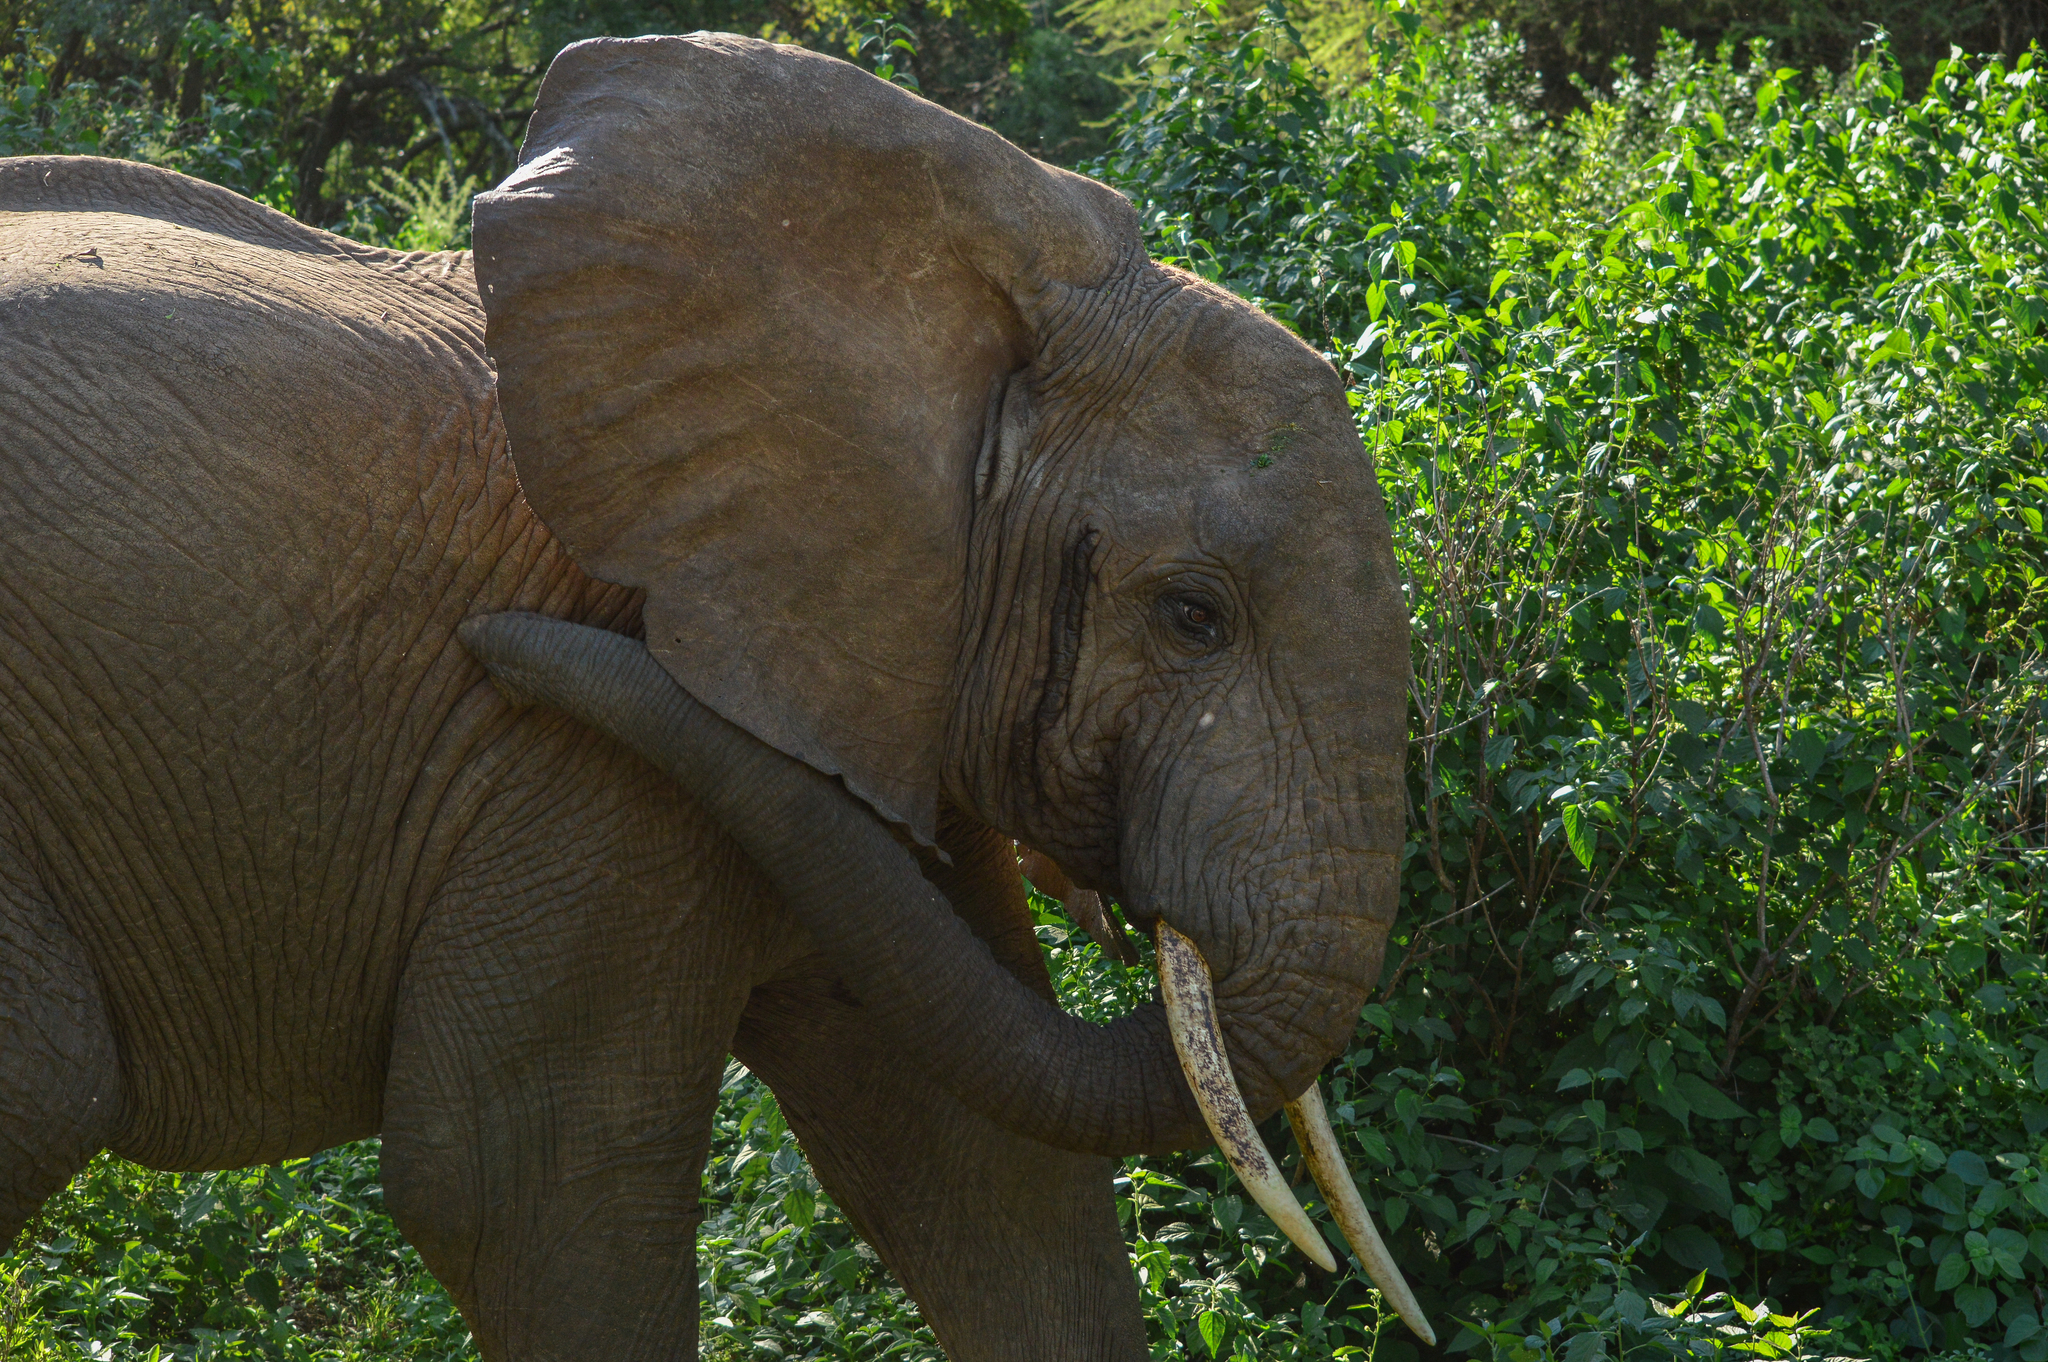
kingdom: Animalia
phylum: Chordata
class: Mammalia
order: Proboscidea
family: Elephantidae
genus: Loxodonta
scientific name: Loxodonta africana
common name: African elephant
